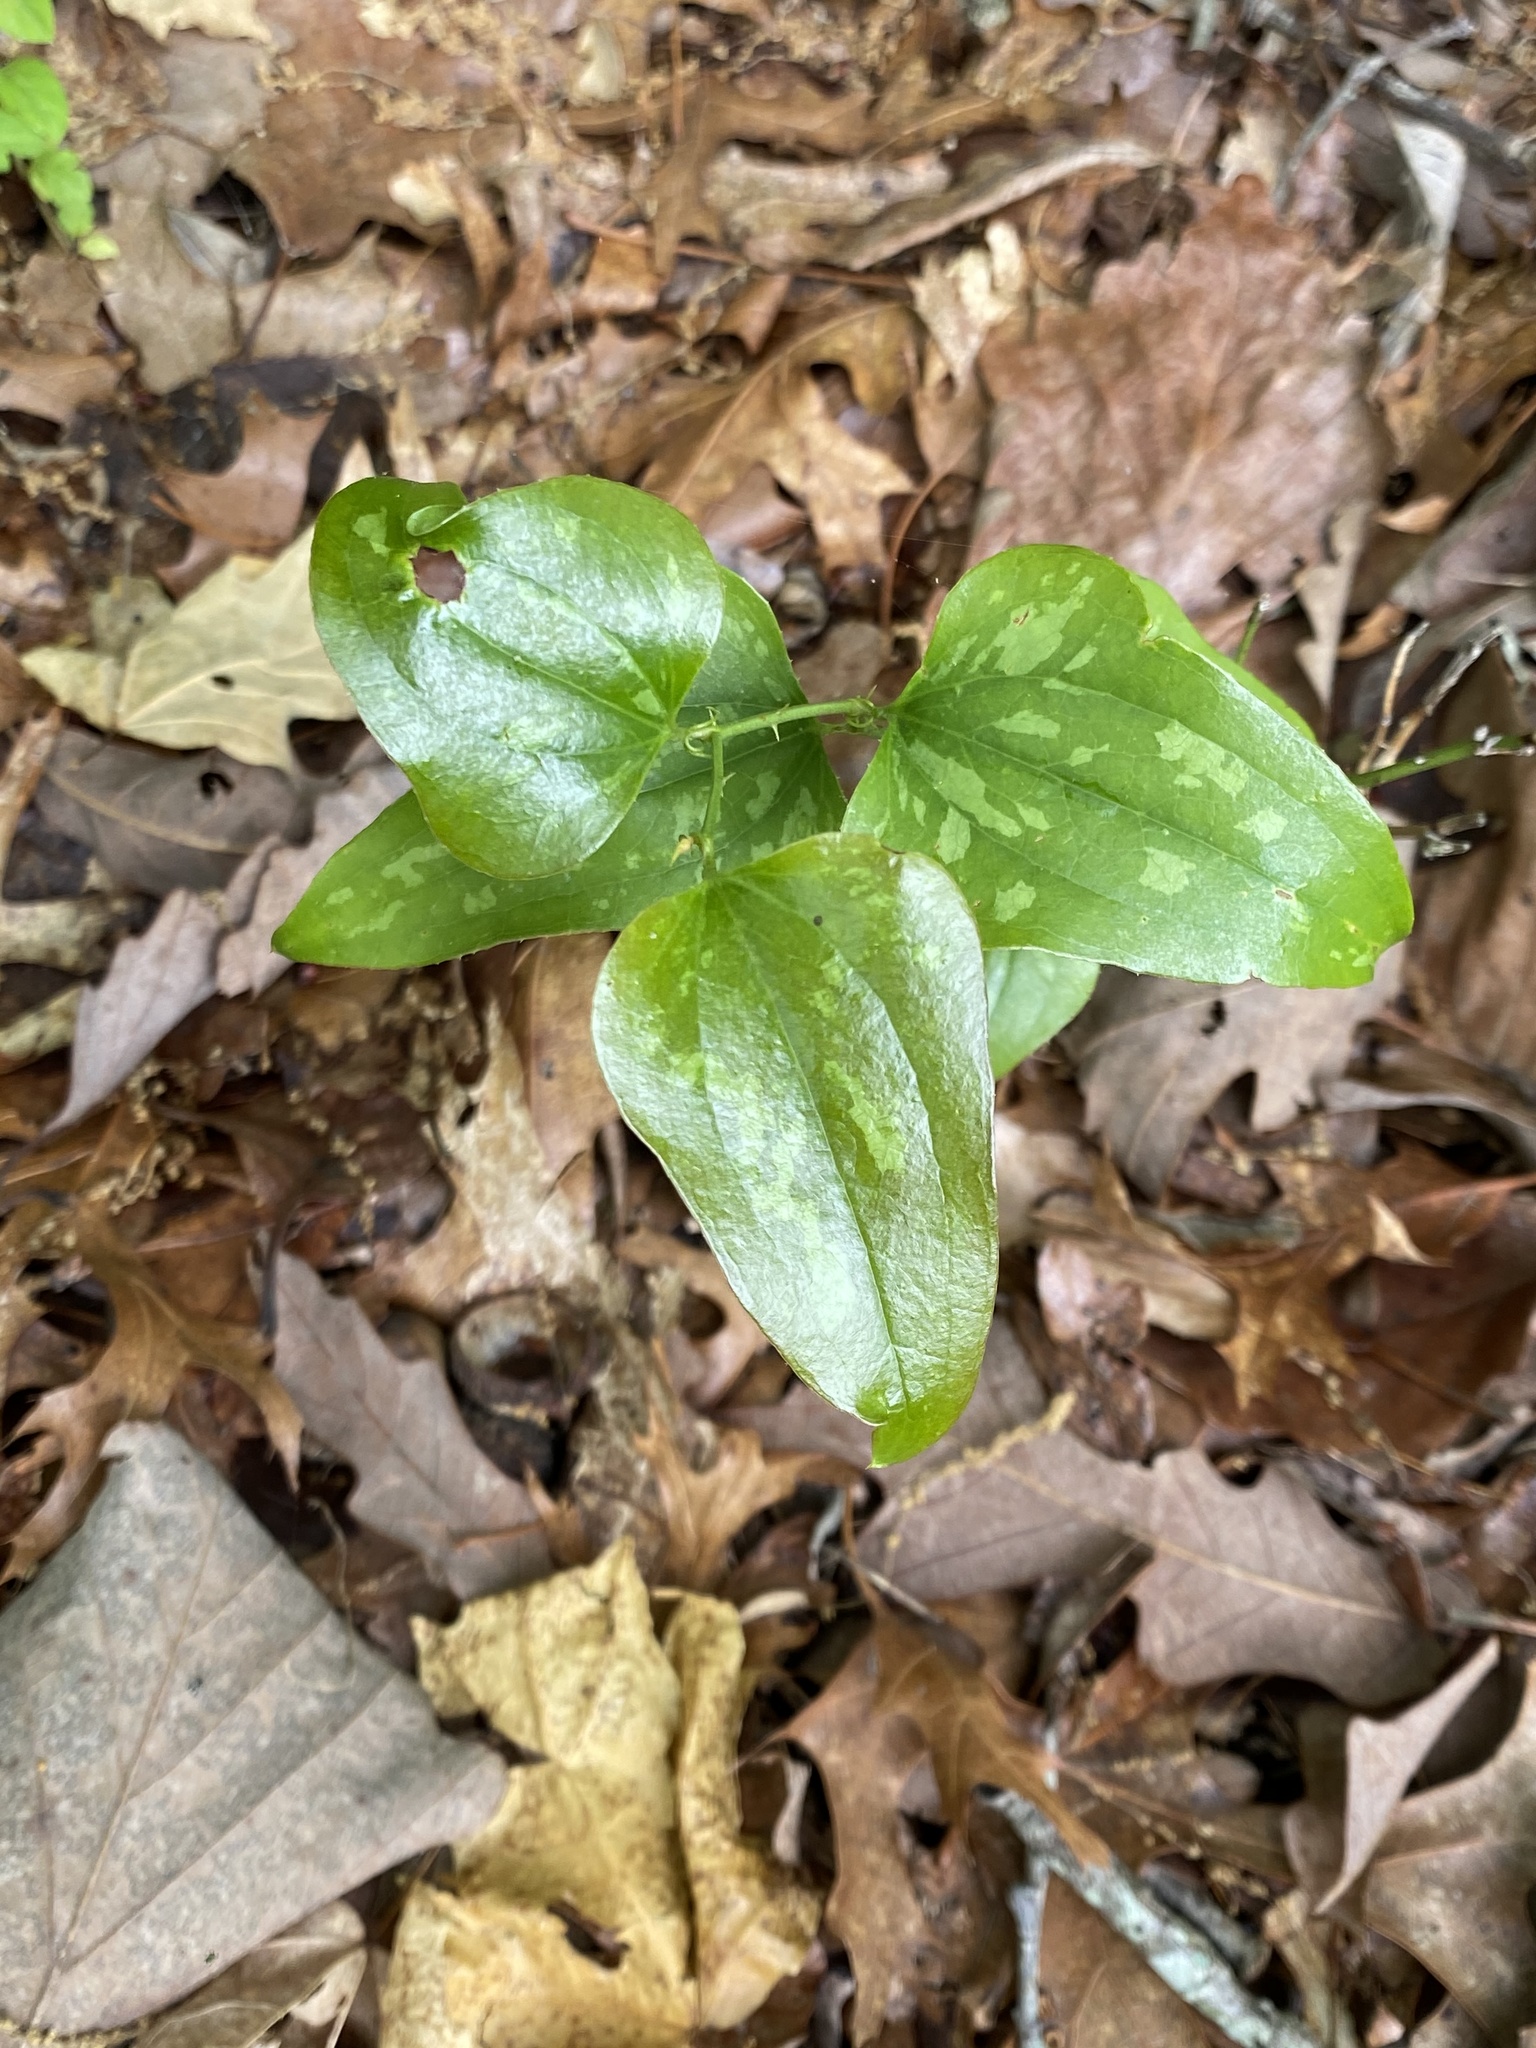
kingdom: Plantae
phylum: Tracheophyta
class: Liliopsida
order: Liliales
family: Smilacaceae
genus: Smilax
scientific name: Smilax bona-nox
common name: Catbrier
